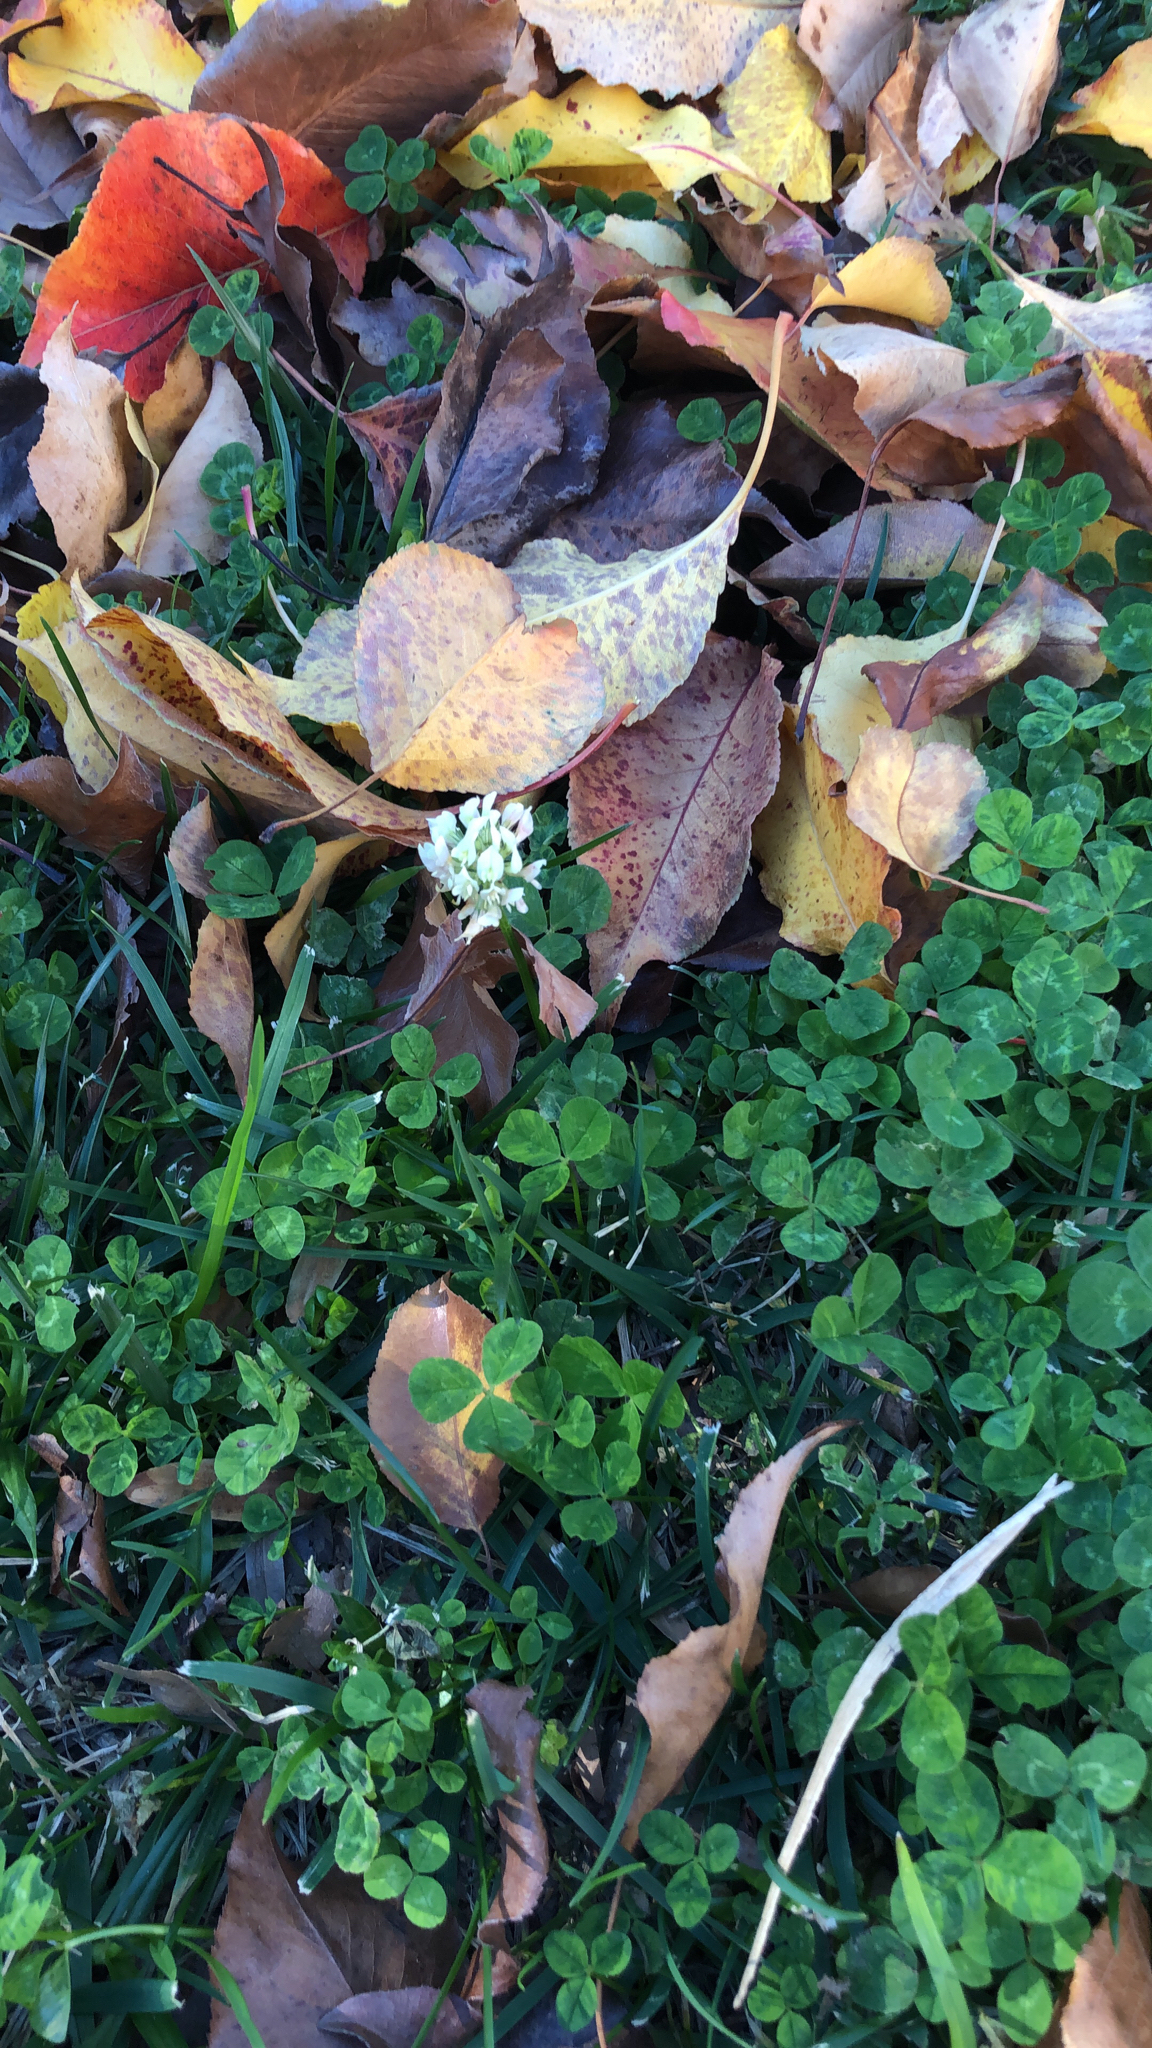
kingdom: Plantae
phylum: Tracheophyta
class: Magnoliopsida
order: Fabales
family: Fabaceae
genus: Trifolium
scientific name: Trifolium repens
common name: White clover
